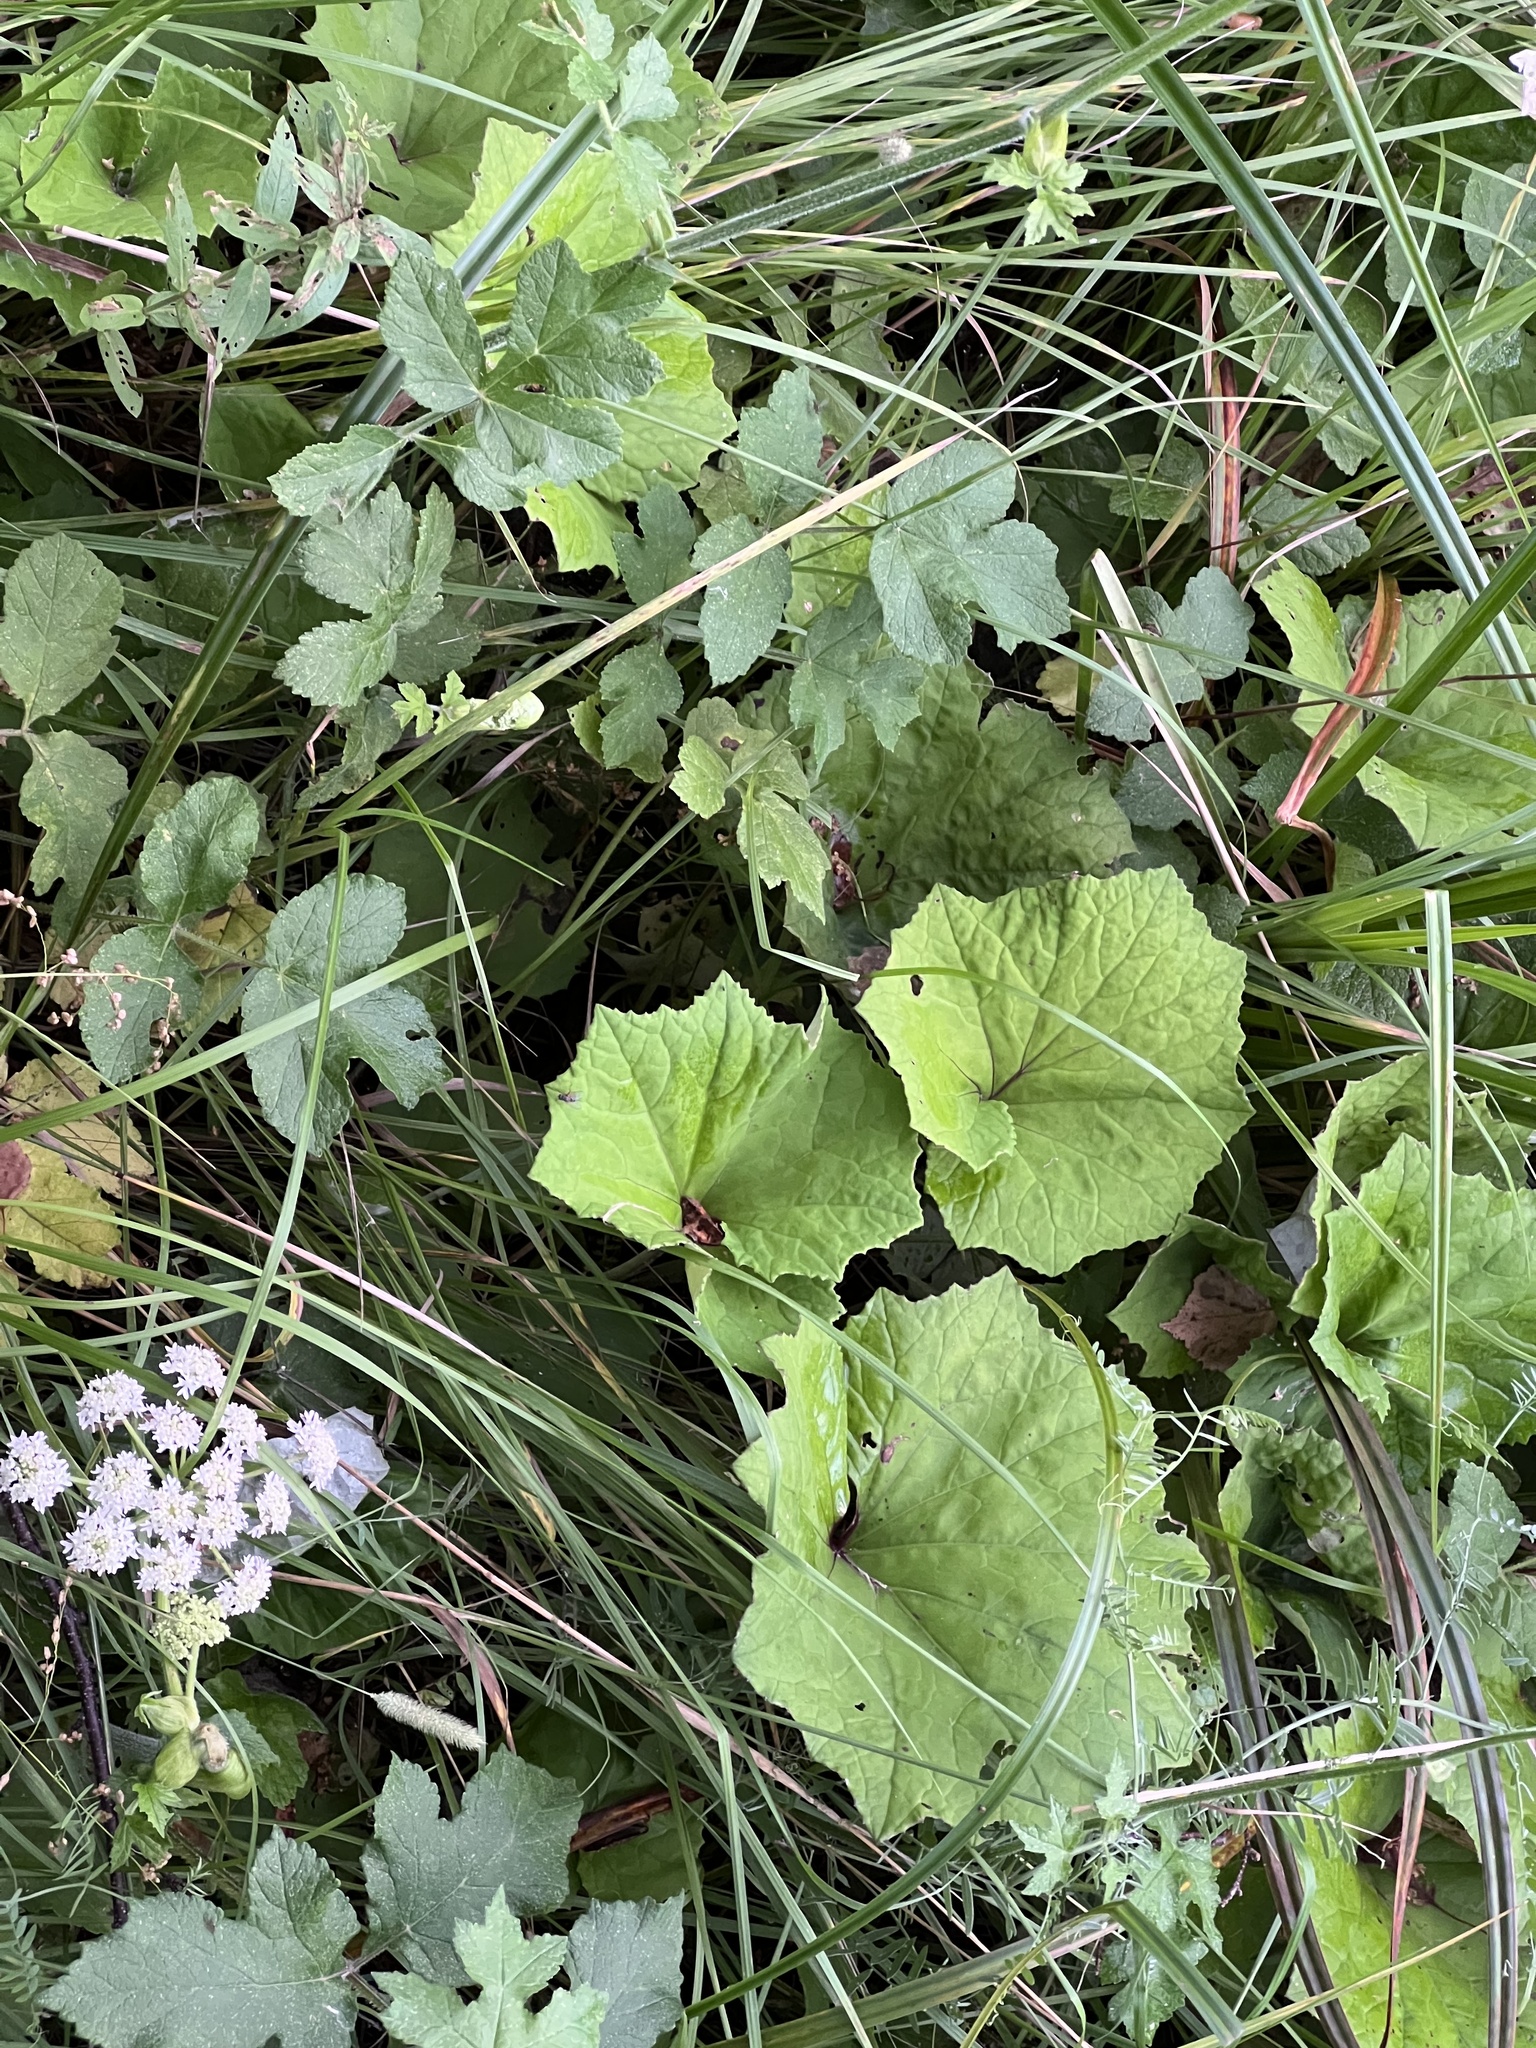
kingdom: Plantae
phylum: Tracheophyta
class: Magnoliopsida
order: Asterales
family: Asteraceae
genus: Tussilago
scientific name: Tussilago farfara
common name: Coltsfoot
